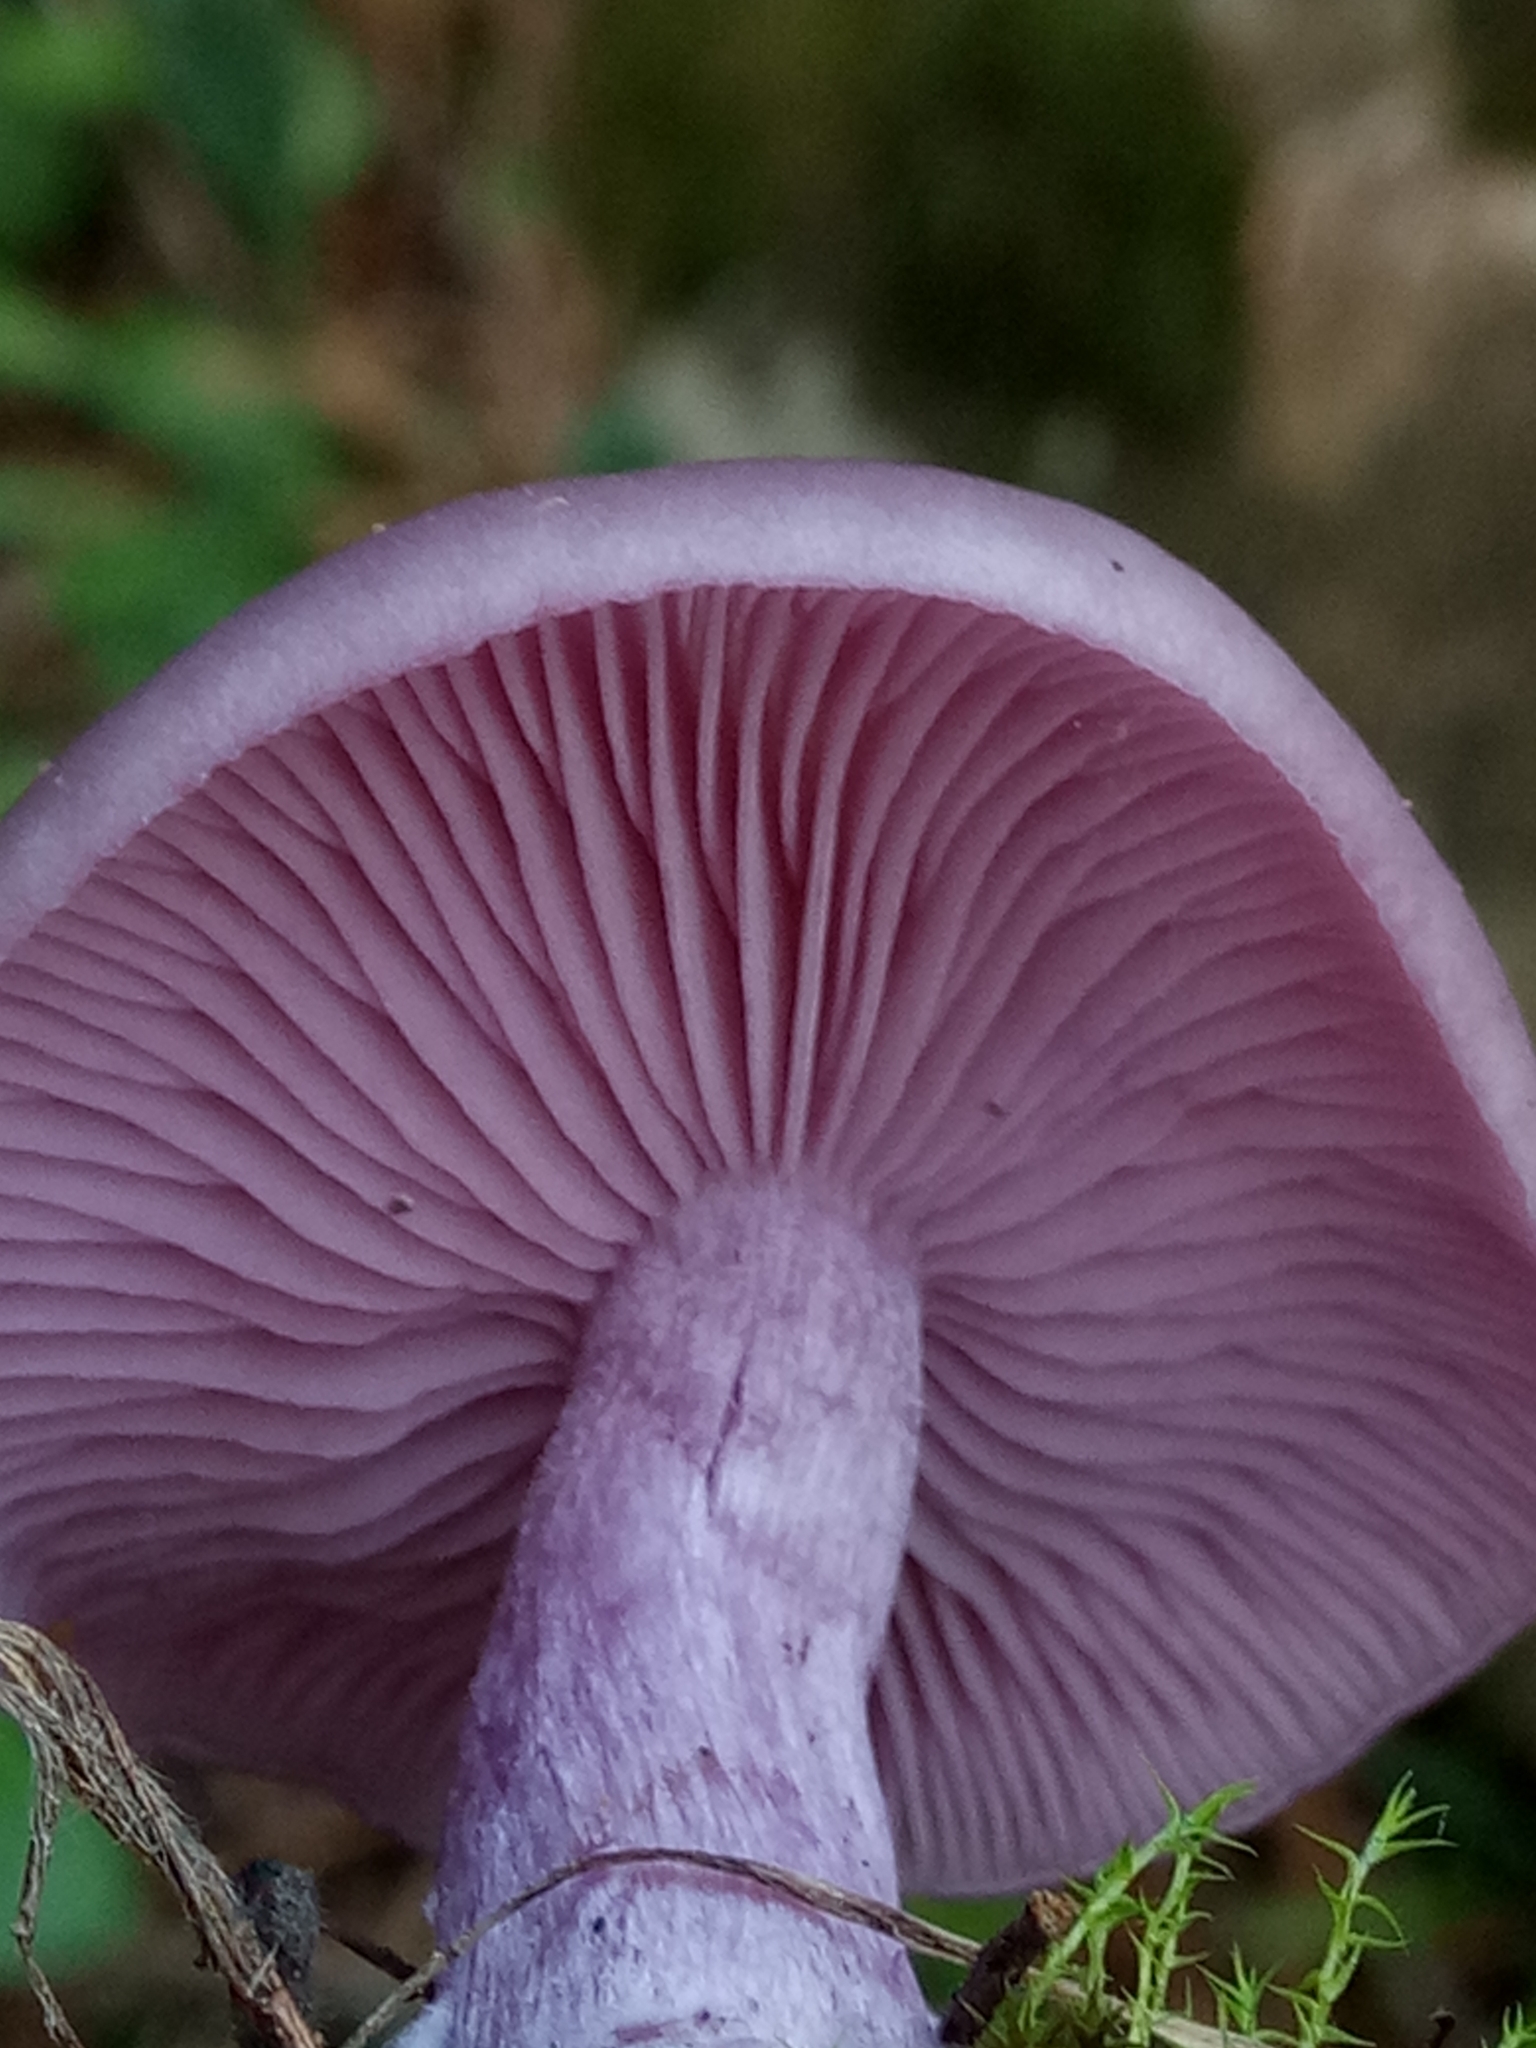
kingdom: Fungi
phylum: Basidiomycota
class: Agaricomycetes
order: Agaricales
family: Tricholomataceae
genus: Collybia
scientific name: Collybia
